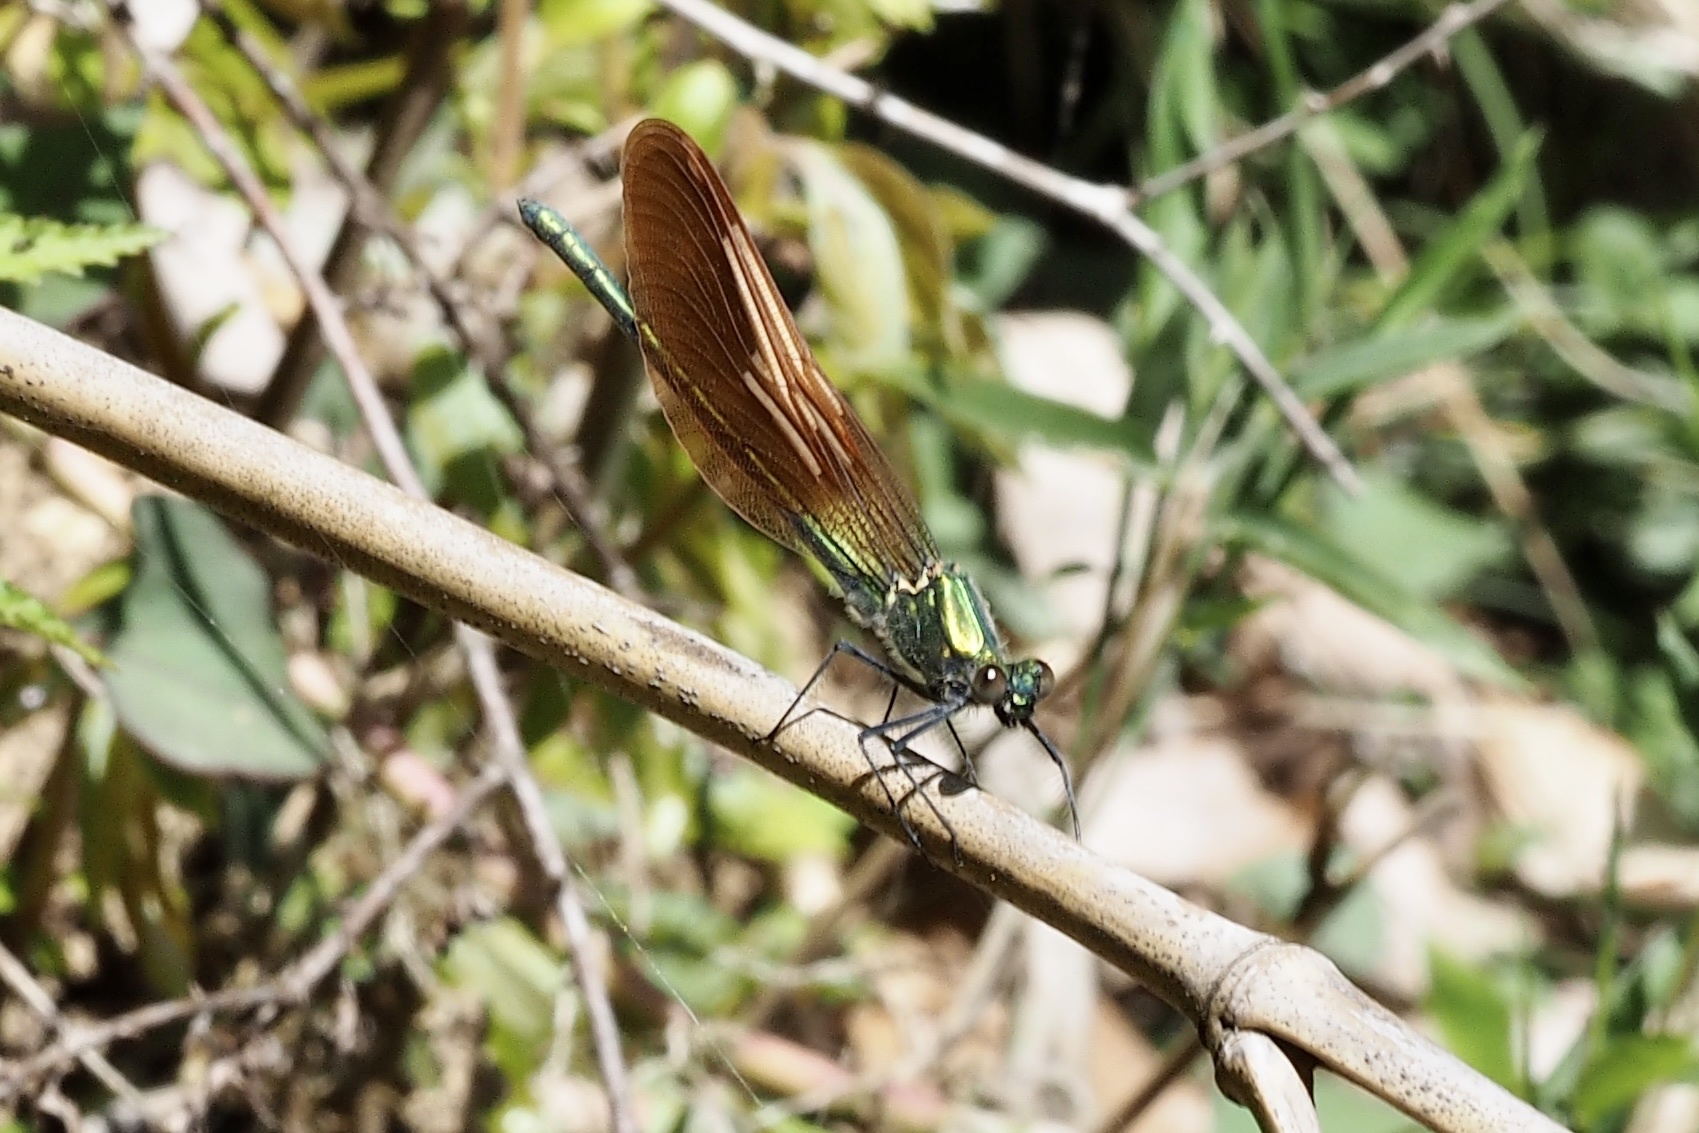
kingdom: Animalia
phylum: Arthropoda
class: Insecta
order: Odonata
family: Calopterygidae
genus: Mnais
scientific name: Mnais costalis
